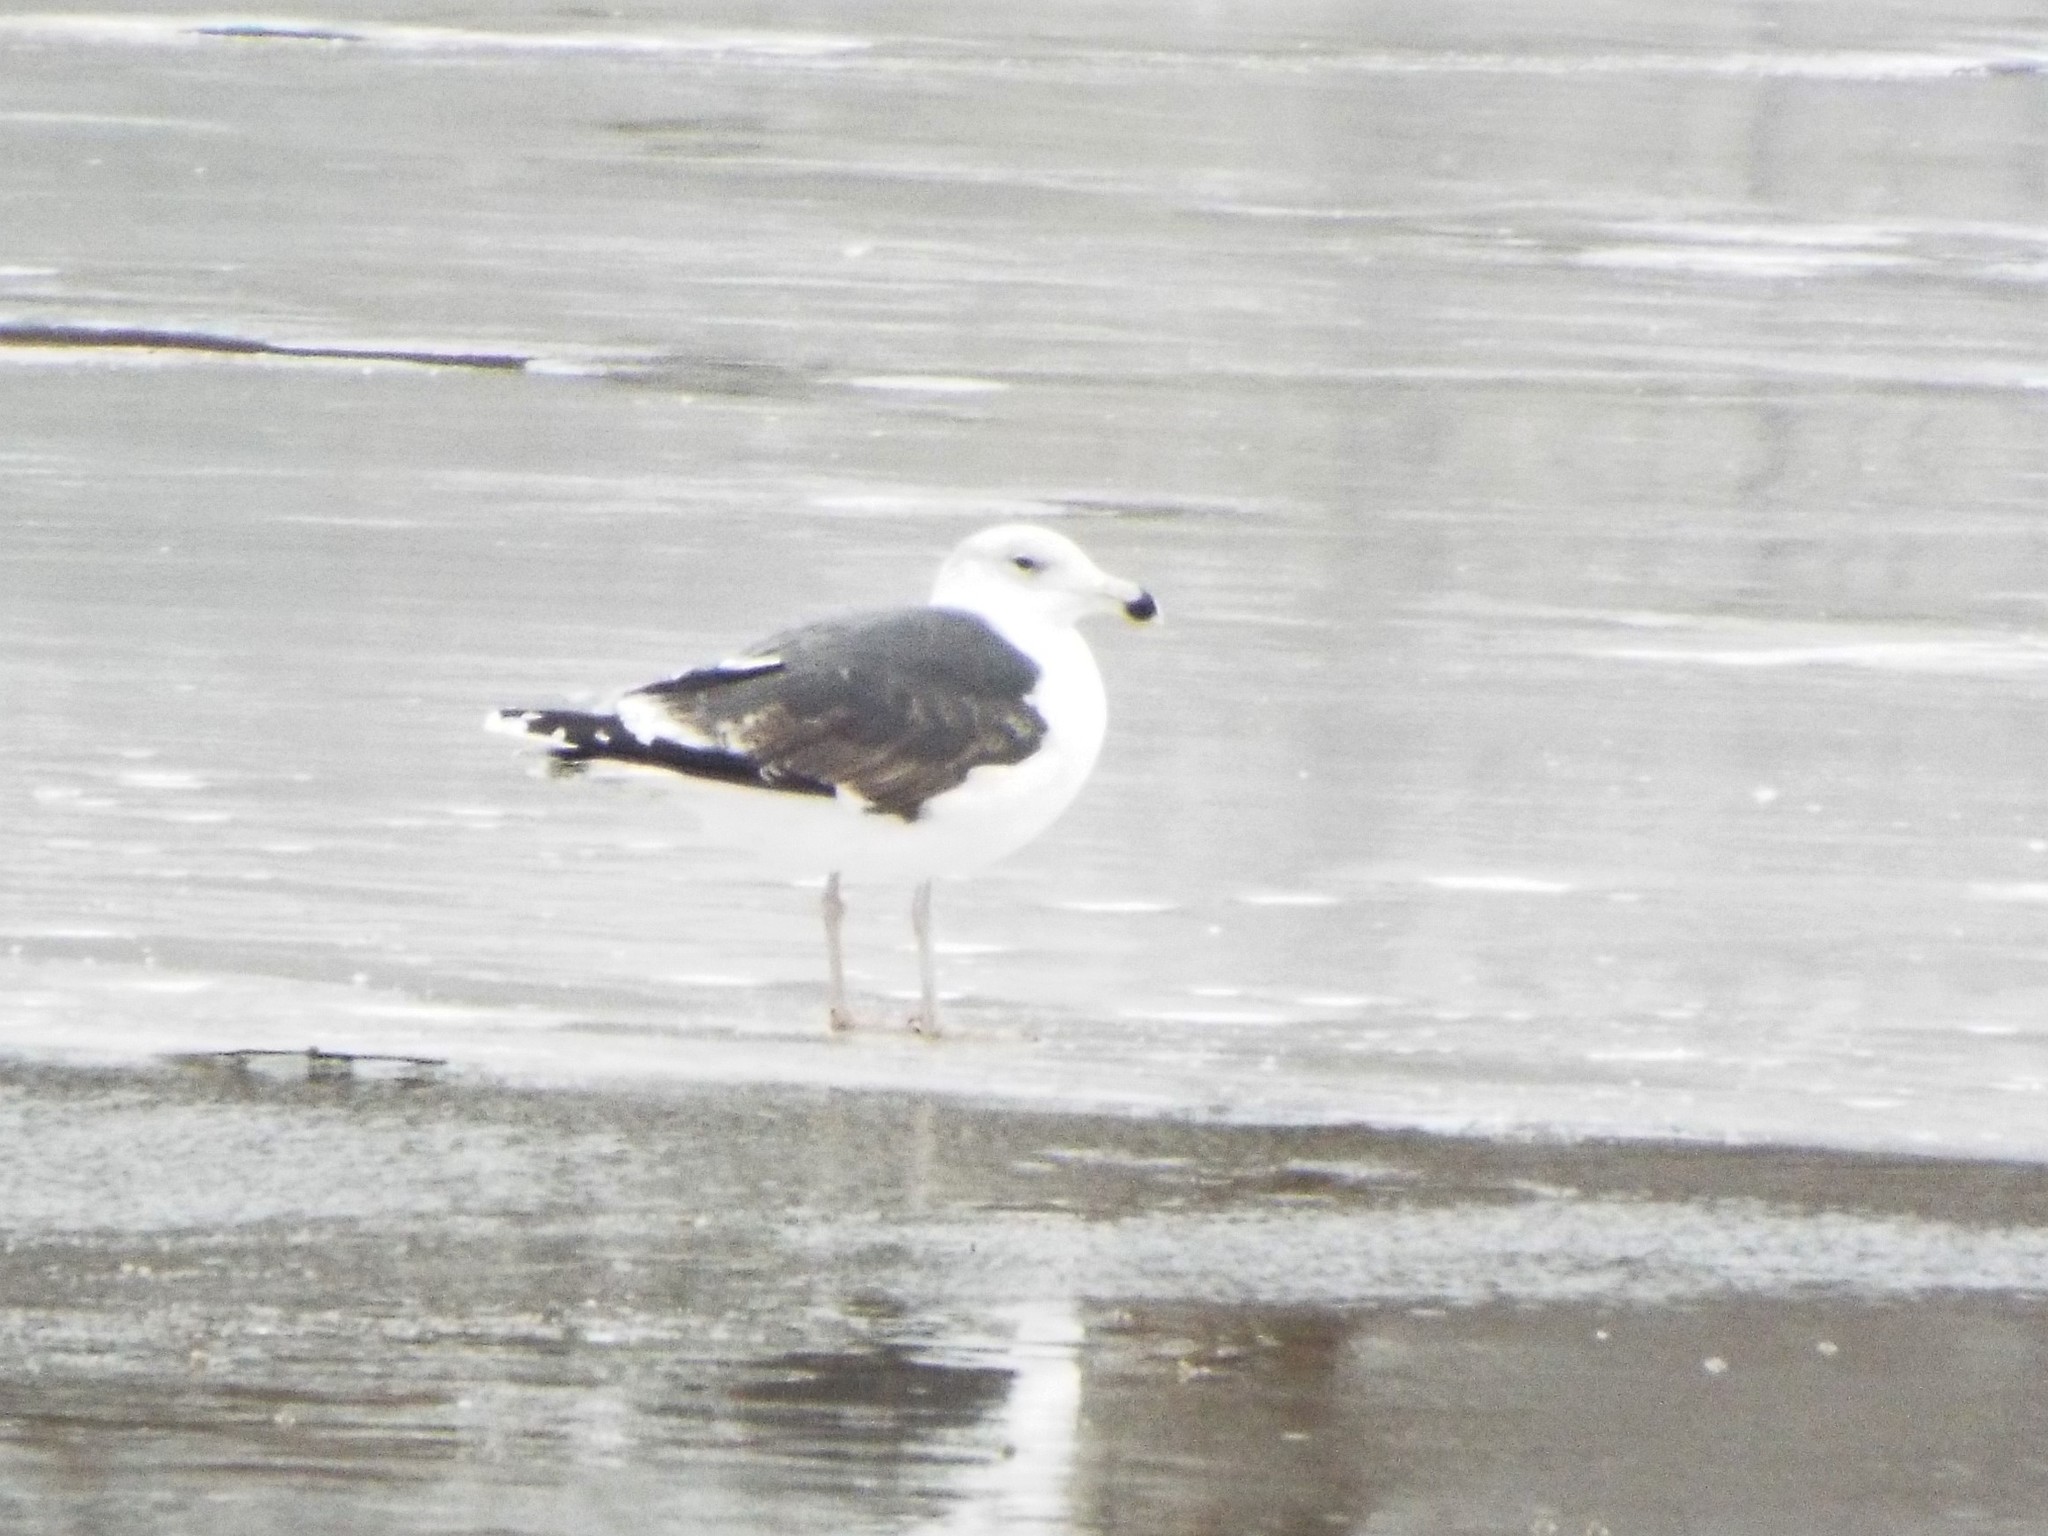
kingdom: Animalia
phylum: Chordata
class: Aves
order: Charadriiformes
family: Laridae
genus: Larus
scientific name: Larus marinus
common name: Great black-backed gull
